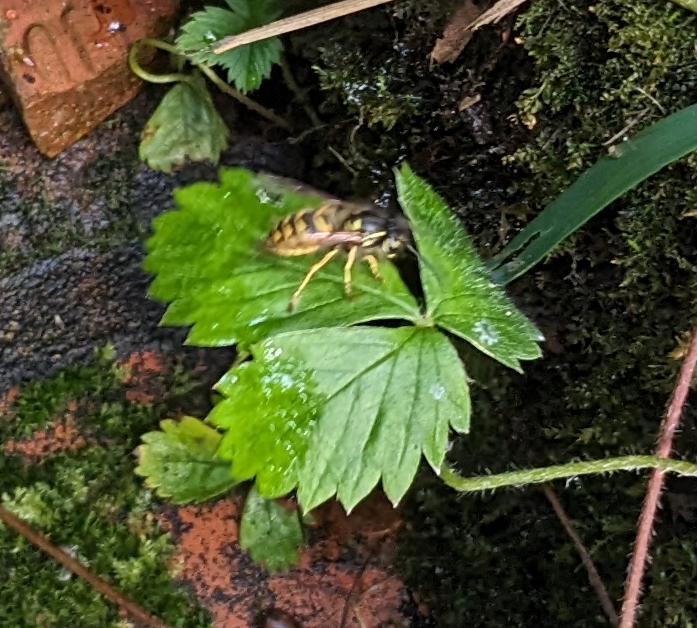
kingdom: Animalia
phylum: Arthropoda
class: Insecta
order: Hymenoptera
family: Vespidae
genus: Vespula
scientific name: Vespula
